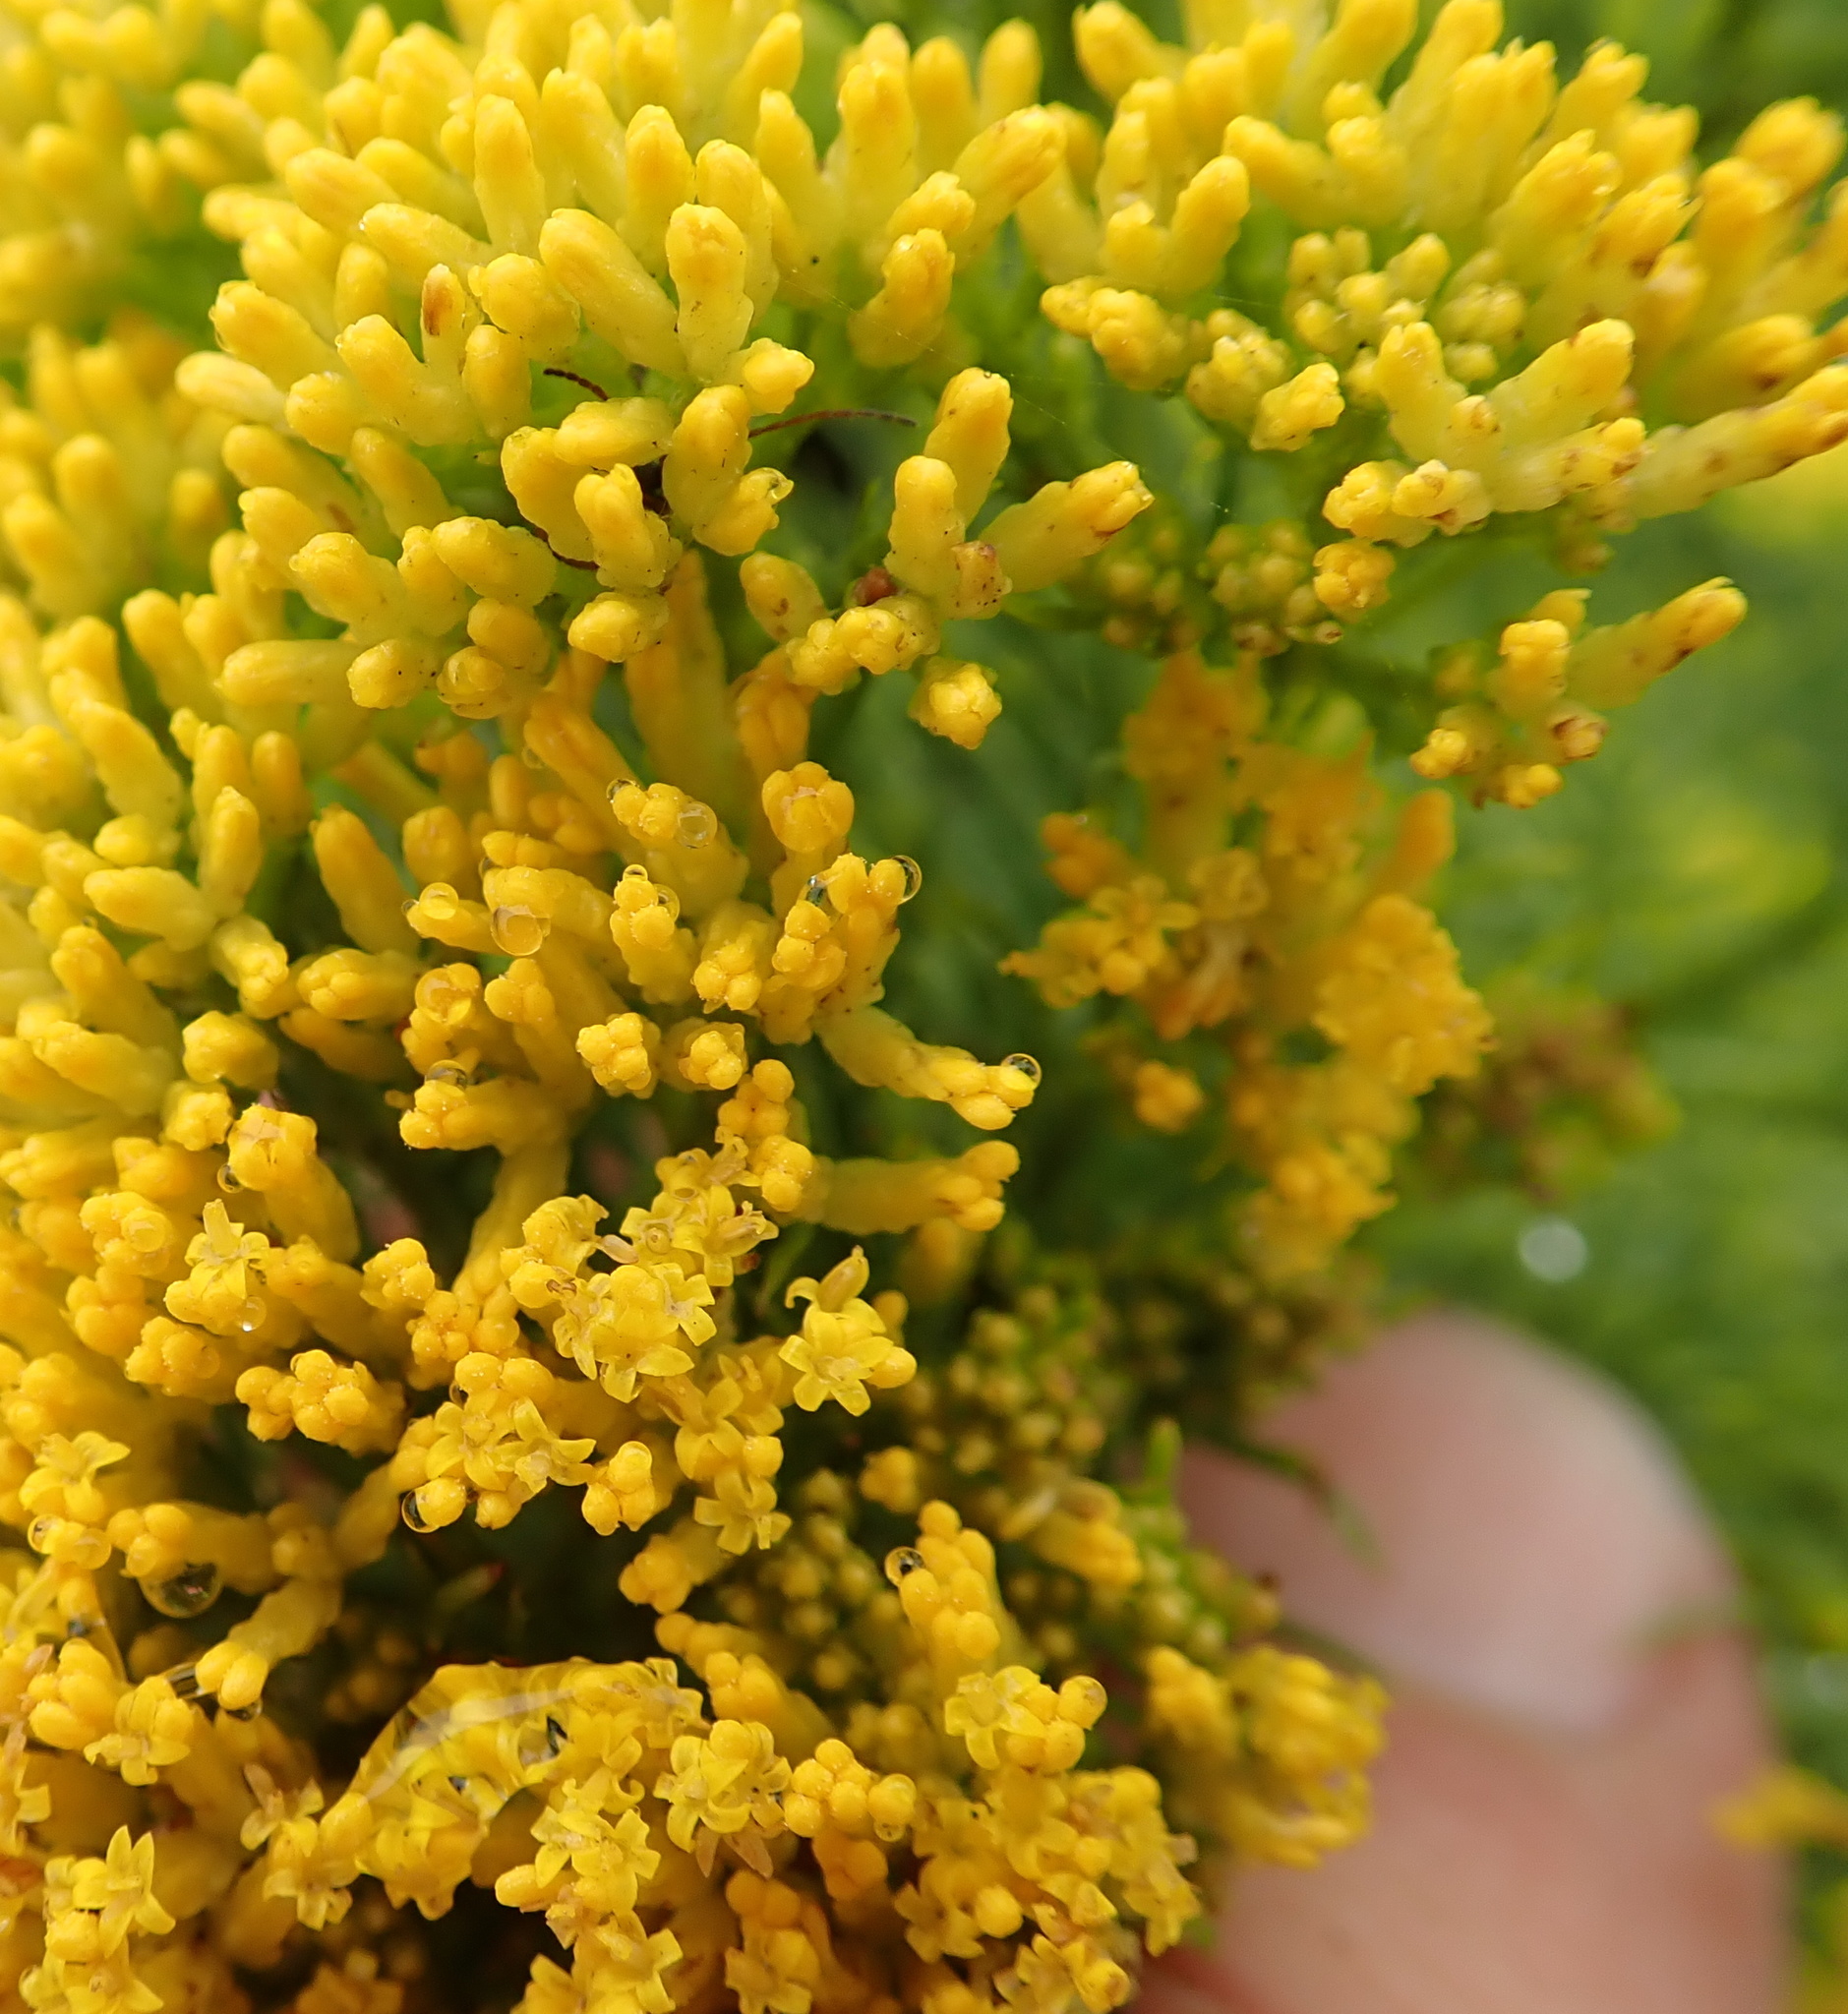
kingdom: Plantae
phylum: Tracheophyta
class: Magnoliopsida
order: Asterales
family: Asteraceae
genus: Phymaspermum
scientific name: Phymaspermum acerosum
